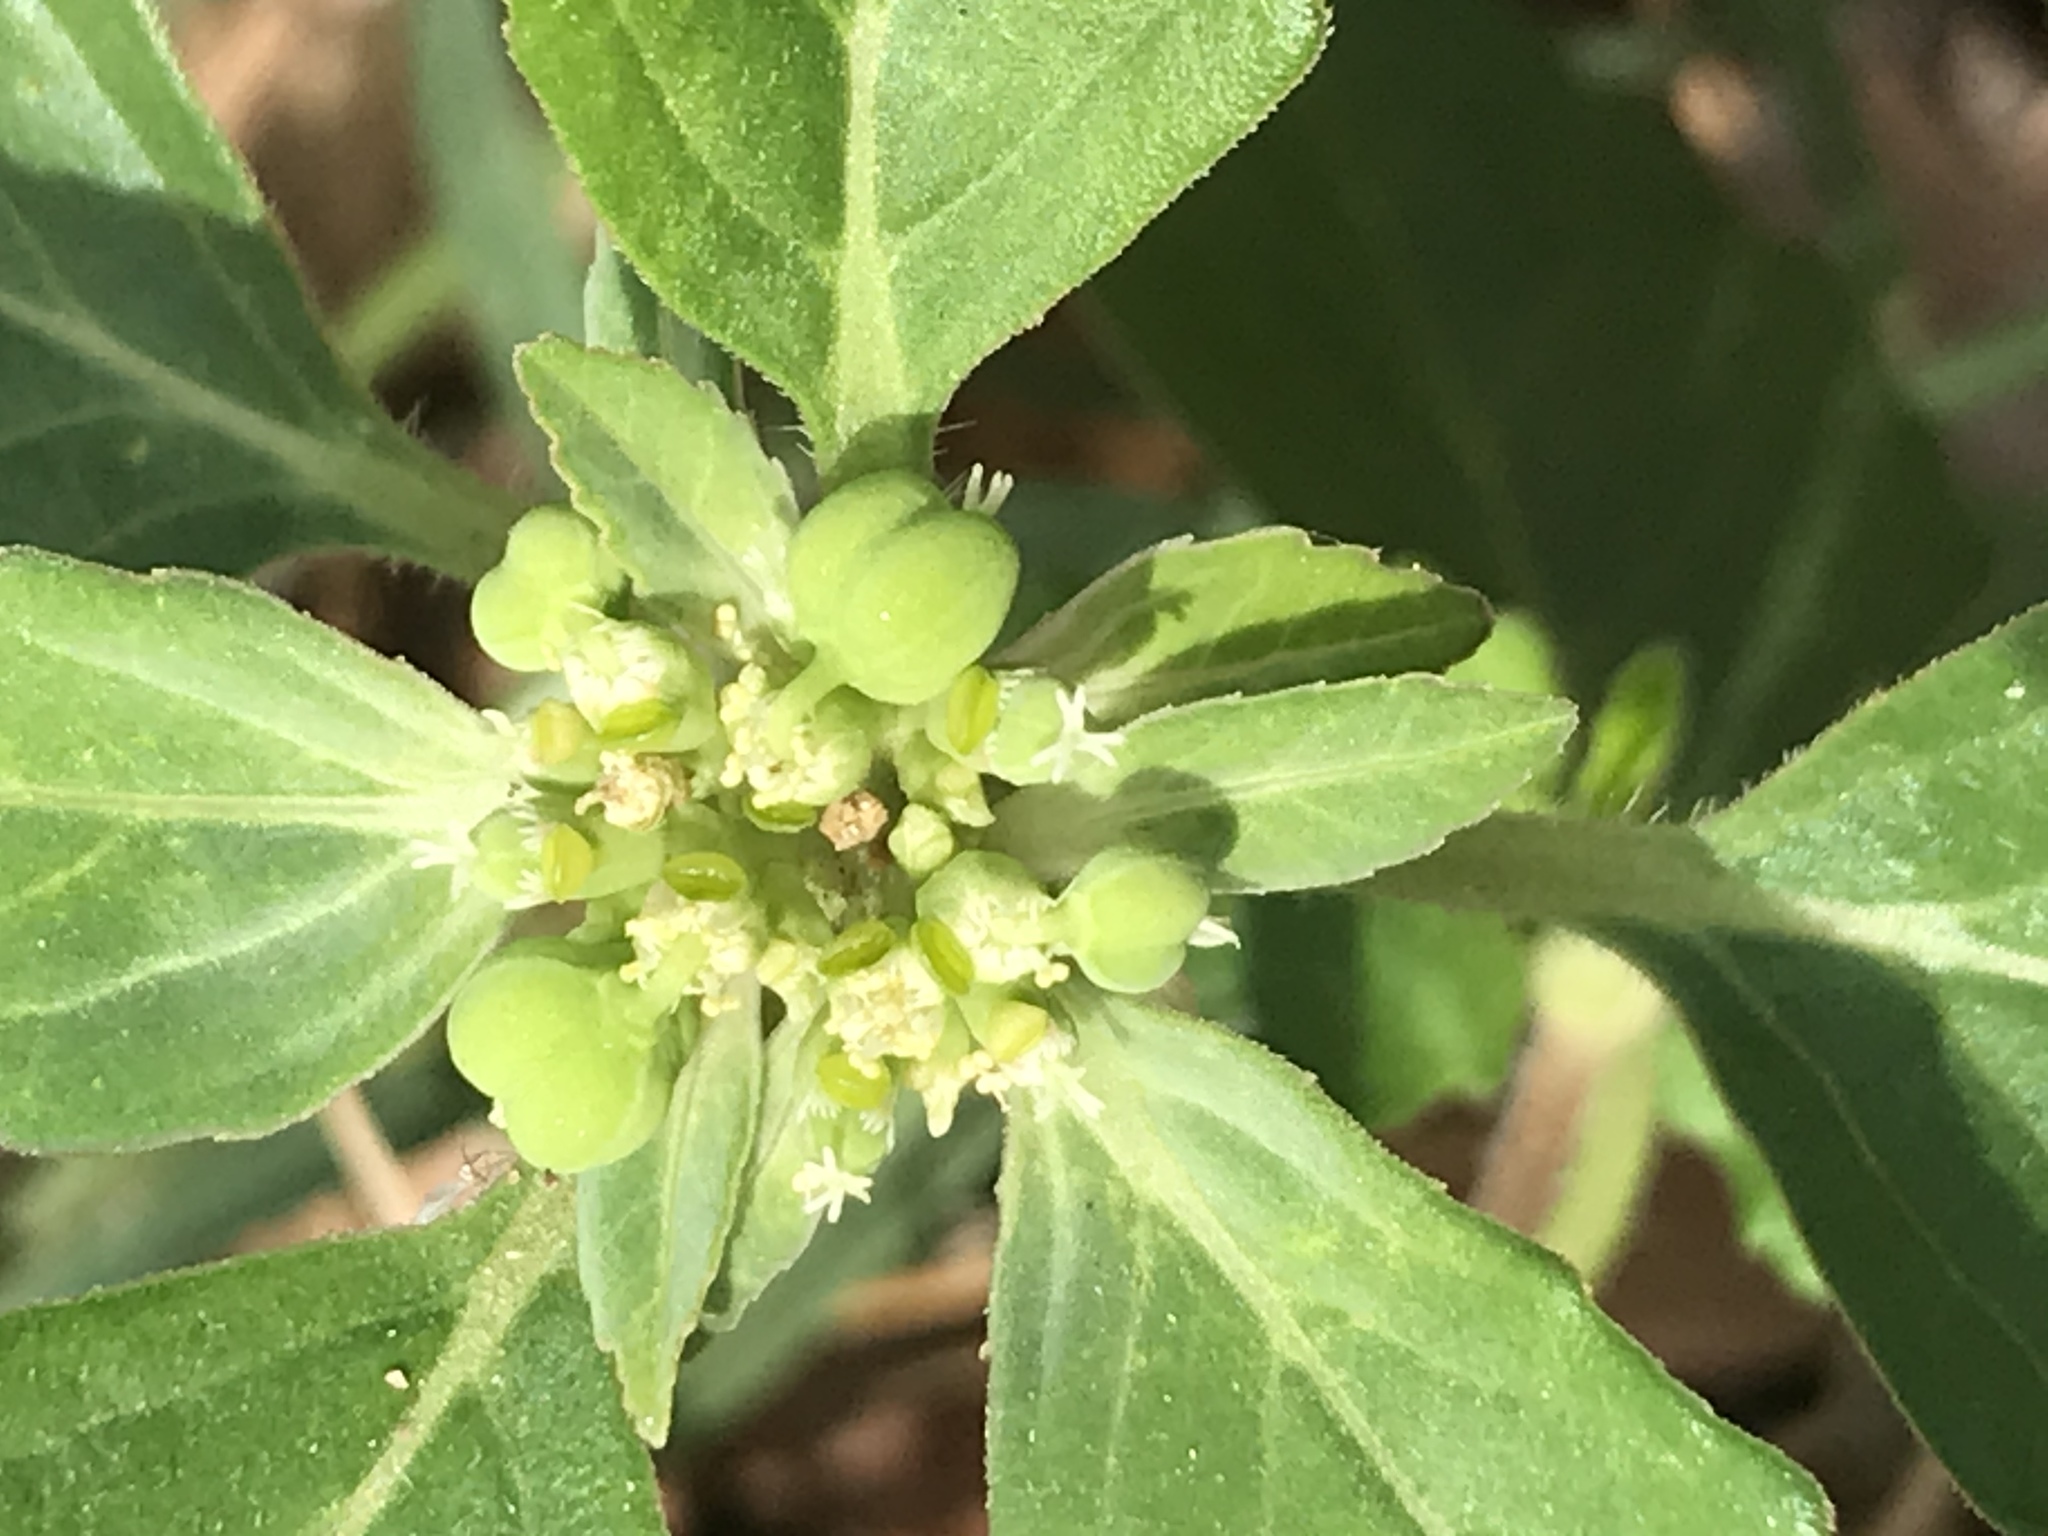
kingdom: Plantae
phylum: Tracheophyta
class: Magnoliopsida
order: Malpighiales
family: Euphorbiaceae
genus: Euphorbia
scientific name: Euphorbia davidii
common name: David's spurge
